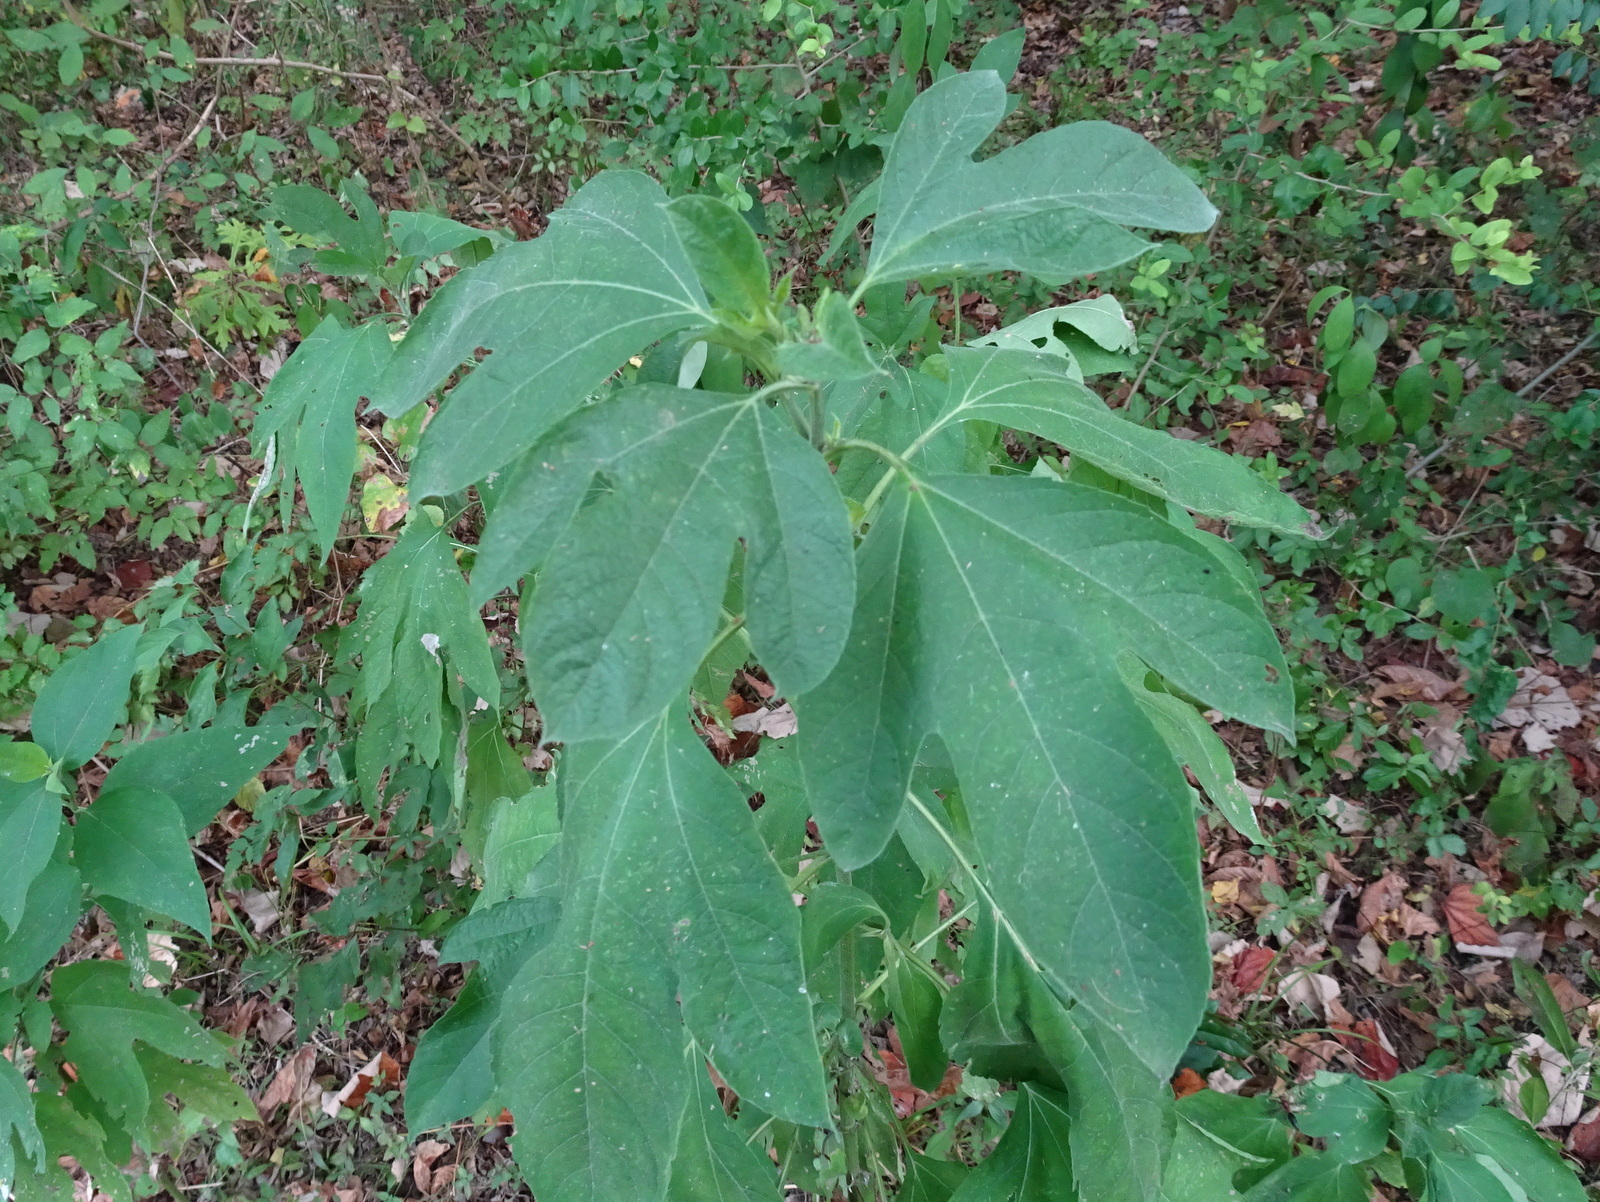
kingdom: Plantae
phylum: Tracheophyta
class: Magnoliopsida
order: Asterales
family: Asteraceae
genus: Ambrosia
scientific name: Ambrosia trifida
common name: Giant ragweed
